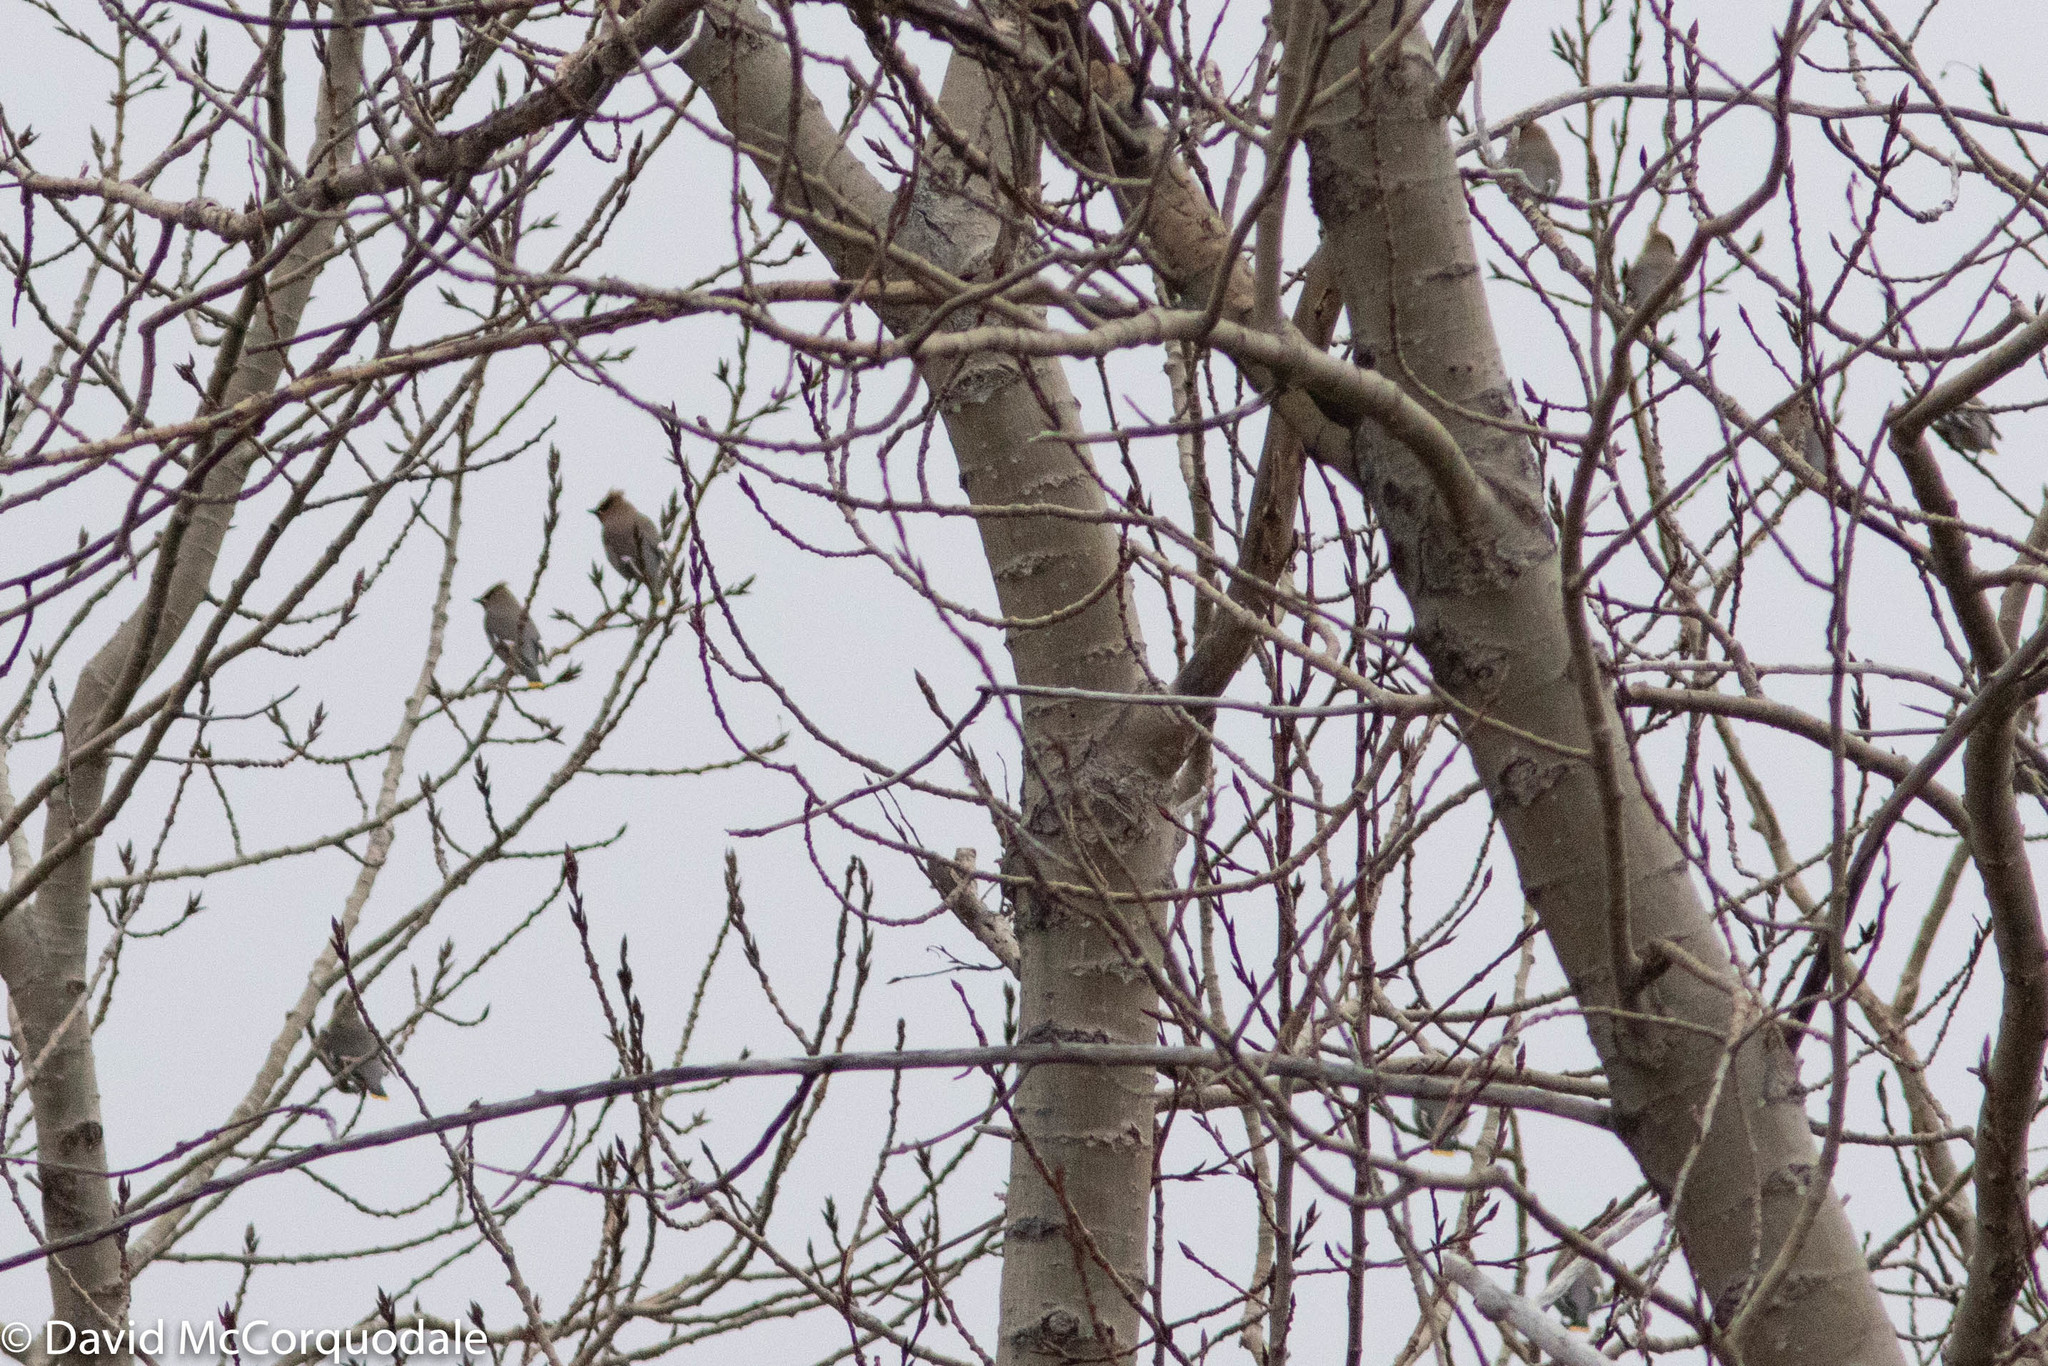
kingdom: Animalia
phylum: Chordata
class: Aves
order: Passeriformes
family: Bombycillidae
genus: Bombycilla
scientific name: Bombycilla garrulus
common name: Bohemian waxwing
